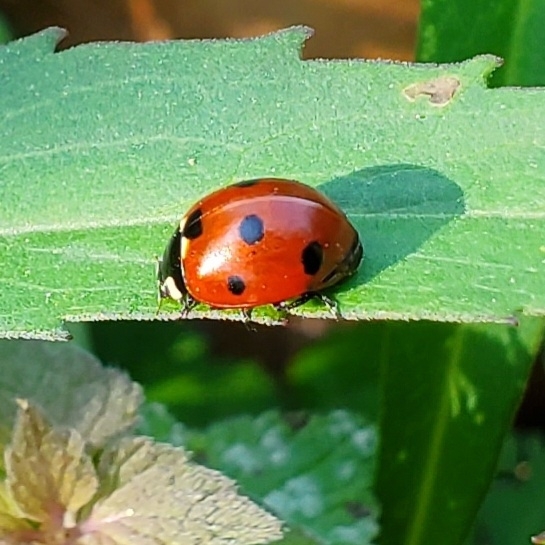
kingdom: Animalia
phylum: Arthropoda
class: Insecta
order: Coleoptera
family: Coccinellidae
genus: Coccinella
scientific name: Coccinella septempunctata
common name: Sevenspotted lady beetle
